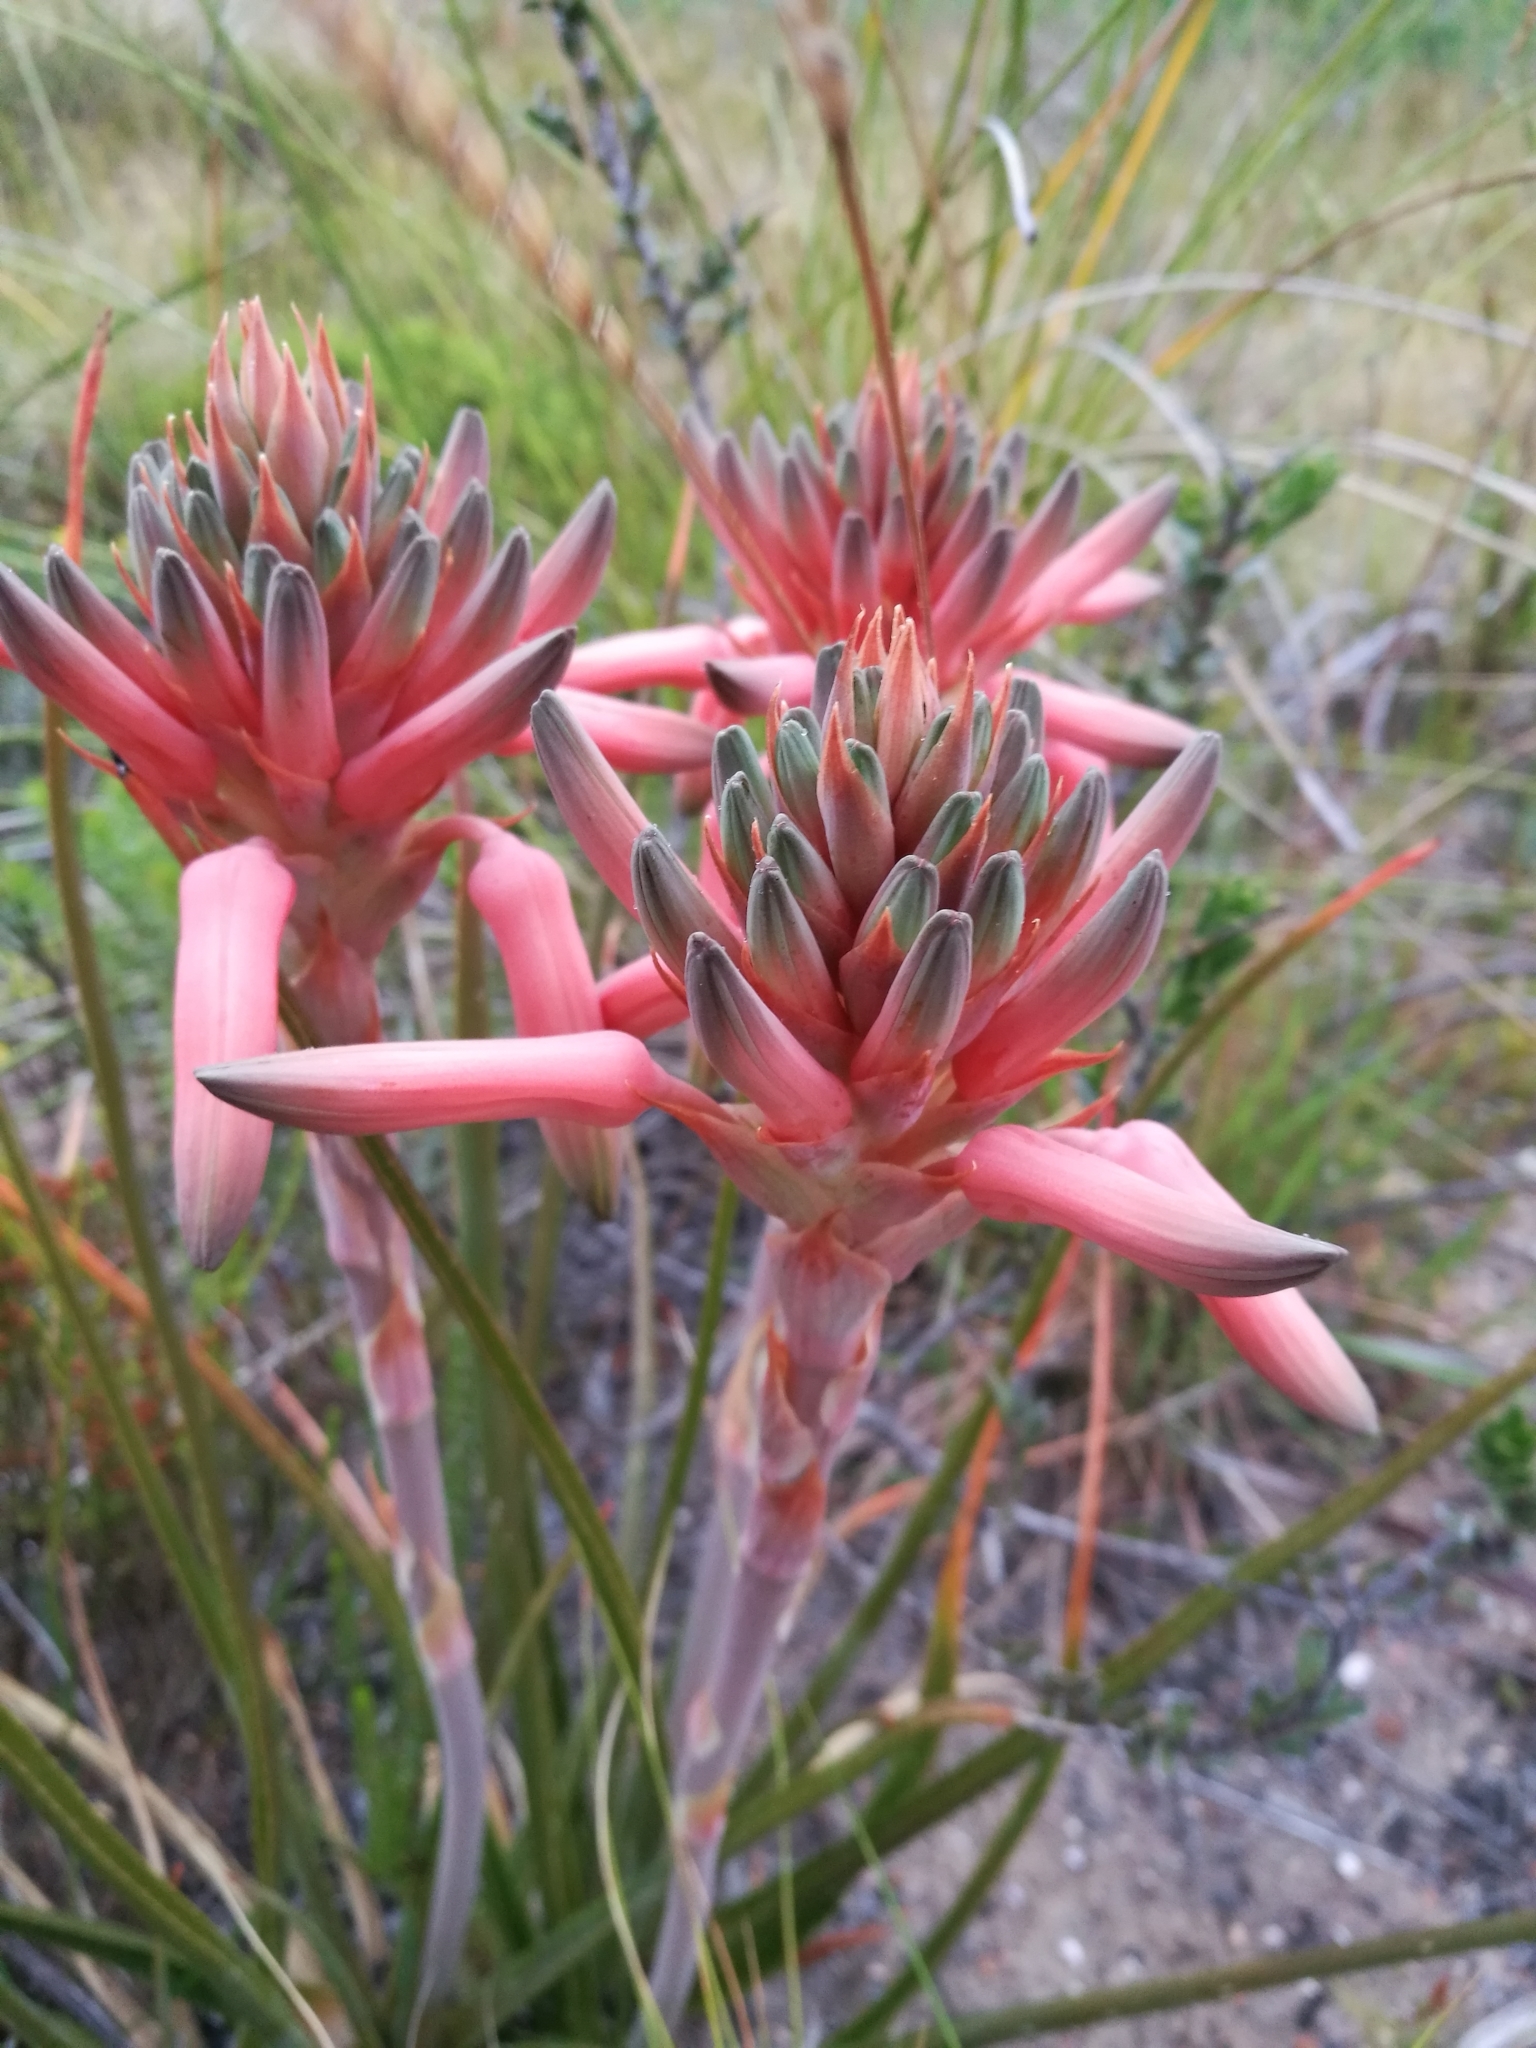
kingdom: Plantae
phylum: Tracheophyta
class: Liliopsida
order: Asparagales
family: Asphodelaceae
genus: Aloe
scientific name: Aloe micracantha
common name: Fynbos grass aloe
